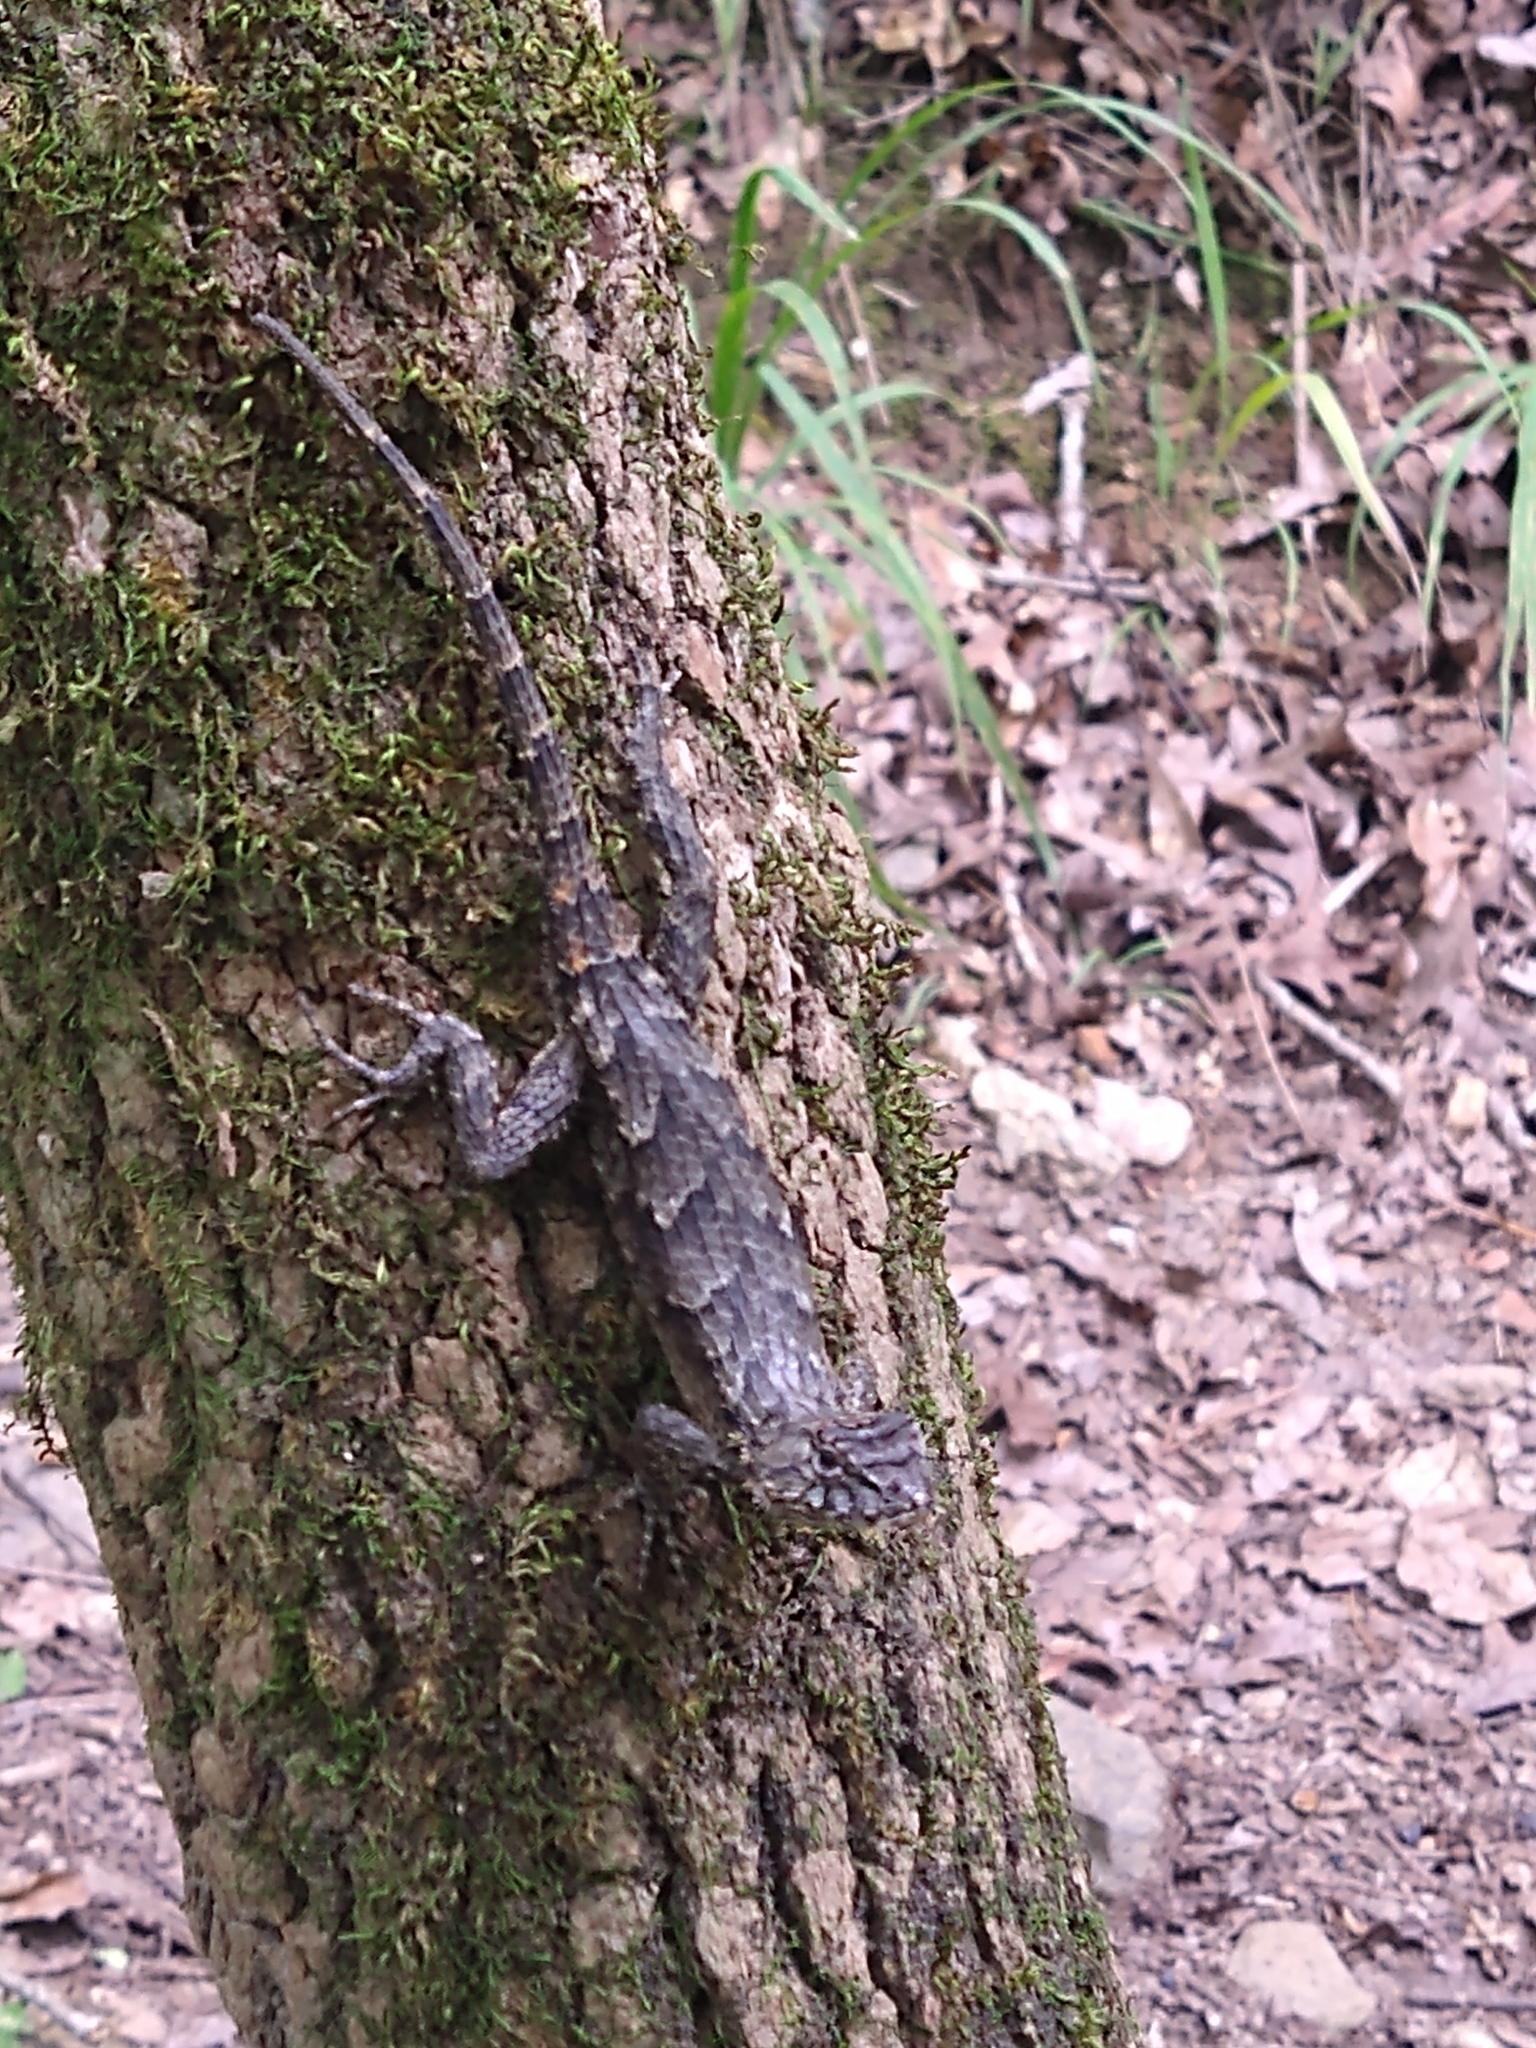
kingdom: Animalia
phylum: Chordata
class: Squamata
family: Phrynosomatidae
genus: Sceloporus
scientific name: Sceloporus undulatus
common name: Eastern fence lizard
